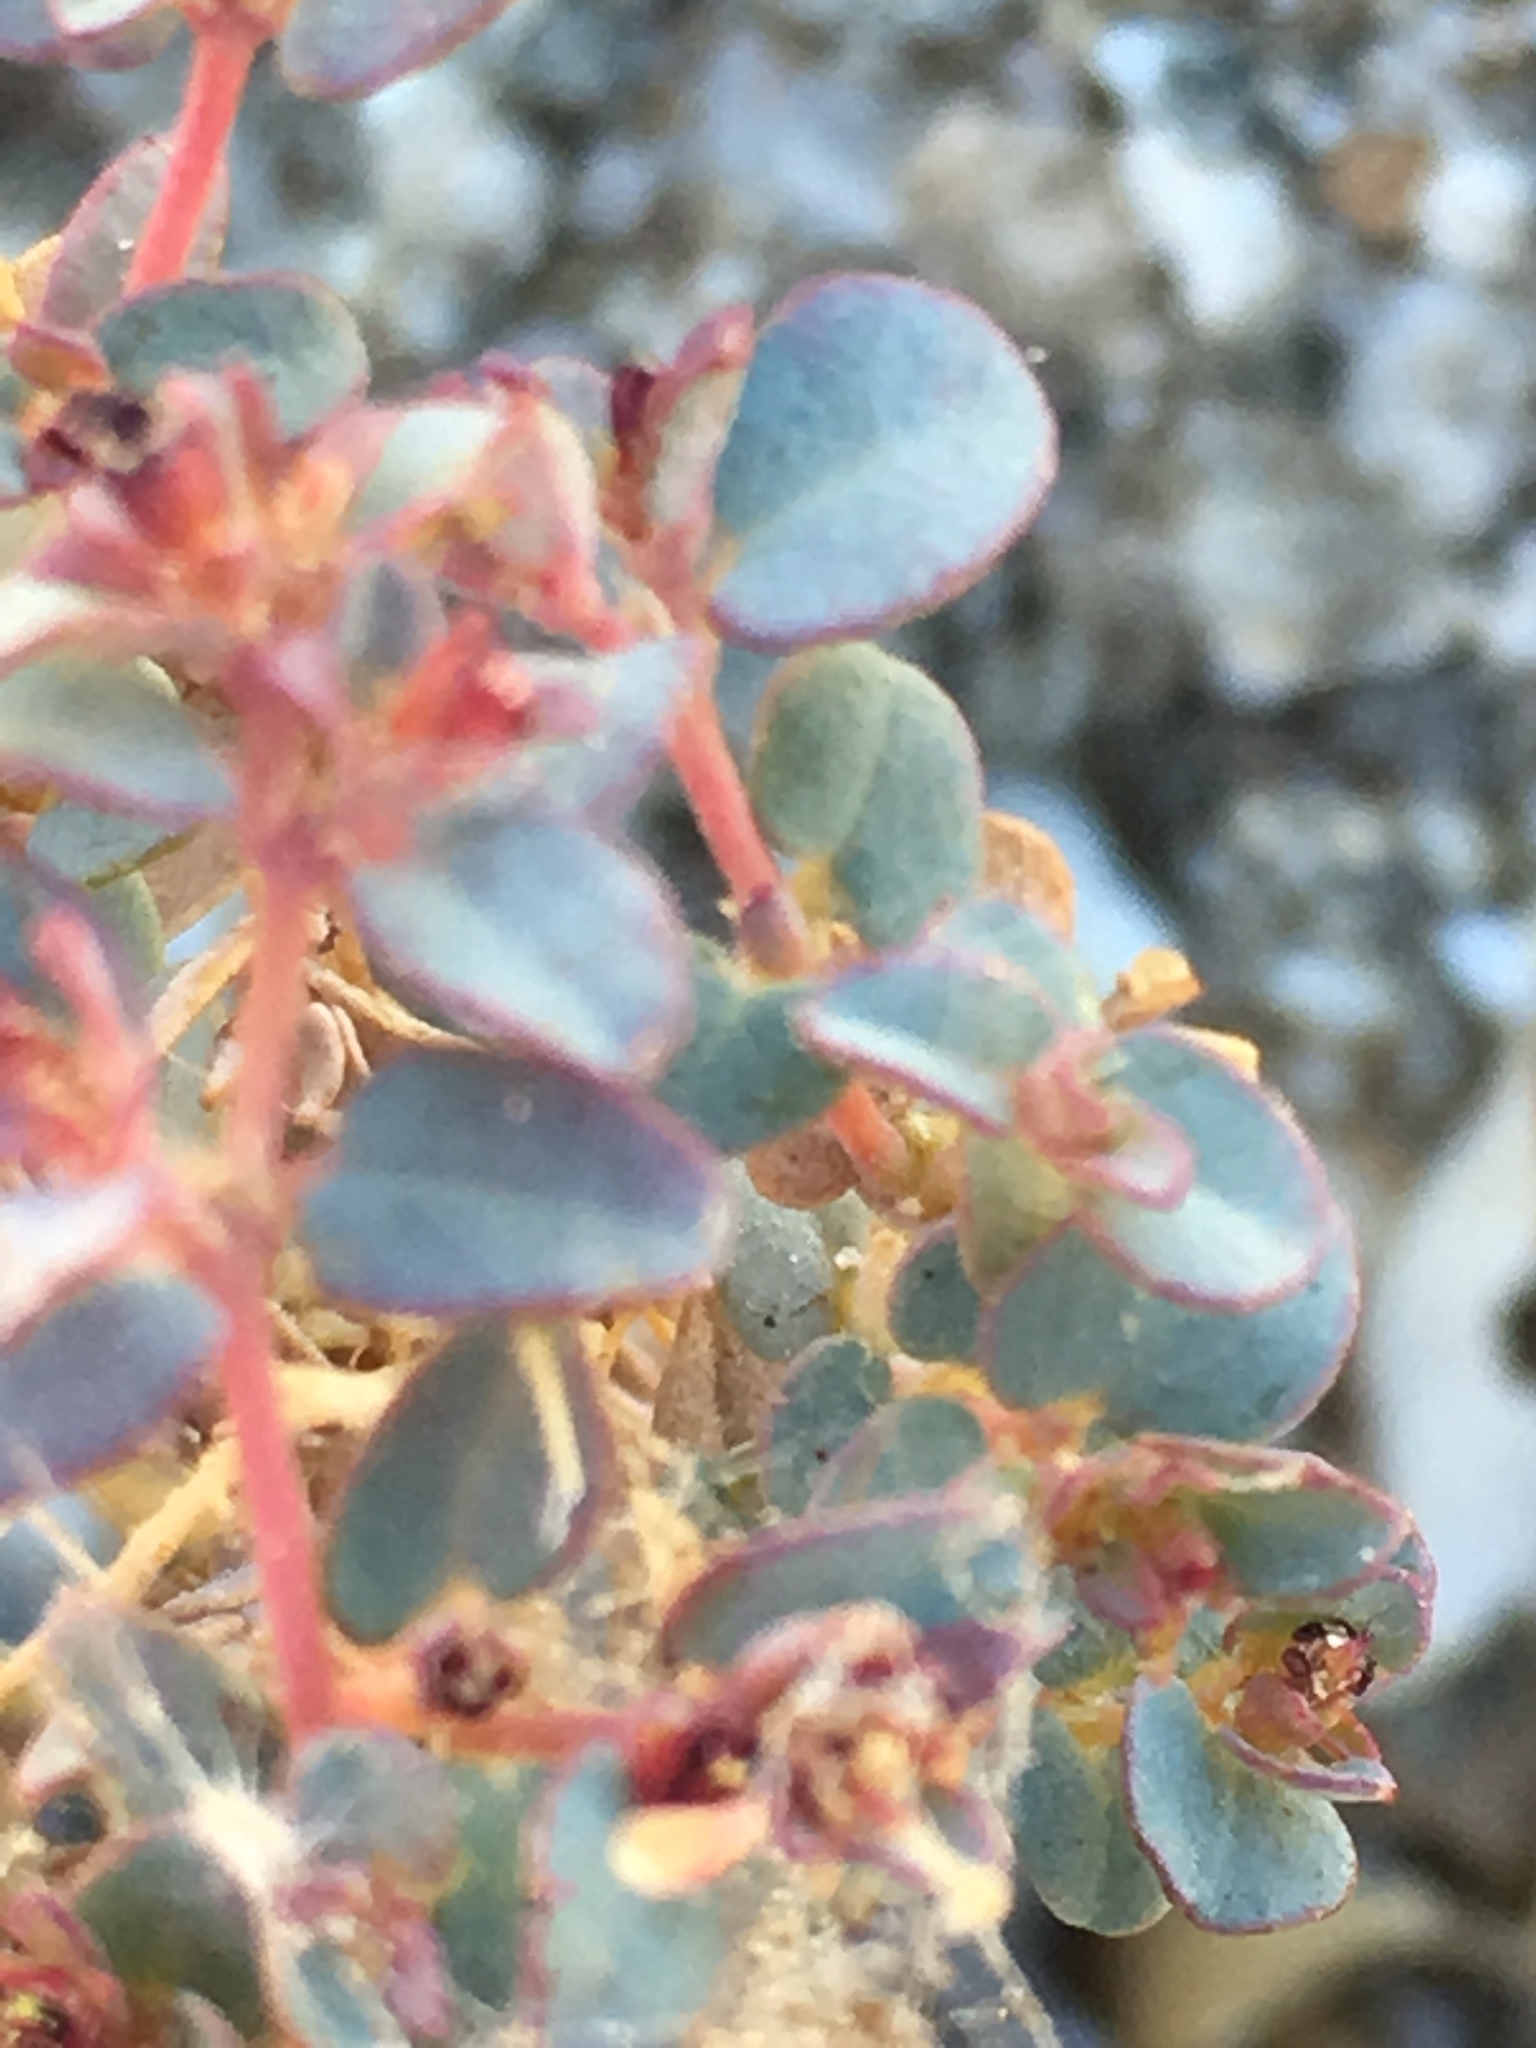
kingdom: Plantae
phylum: Tracheophyta
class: Magnoliopsida
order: Malpighiales
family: Euphorbiaceae
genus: Euphorbia
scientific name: Euphorbia polycarpa
